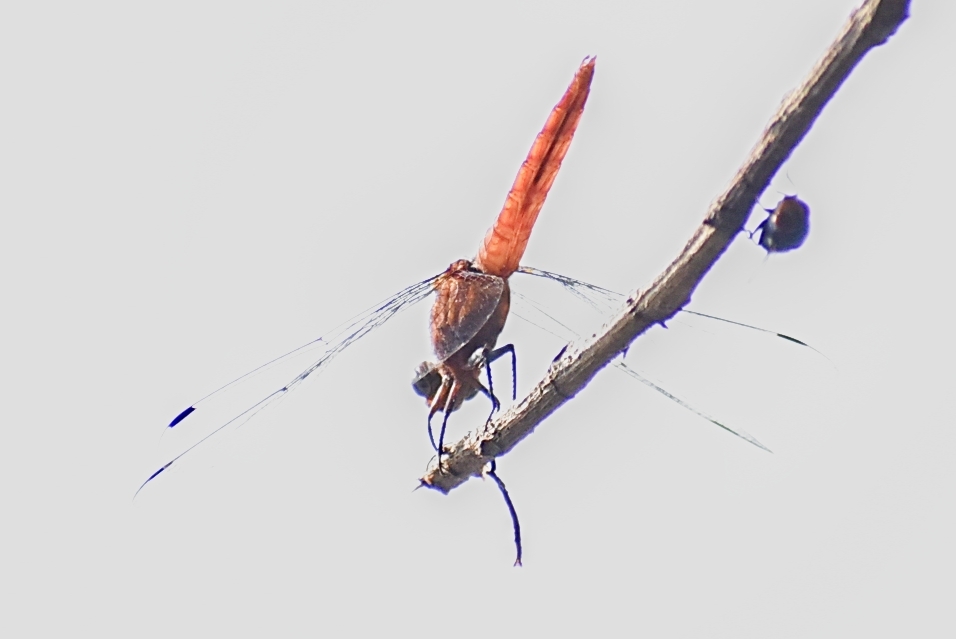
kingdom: Animalia
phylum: Arthropoda
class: Insecta
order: Odonata
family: Libellulidae
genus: Orthetrum
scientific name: Orthetrum pruinosum
